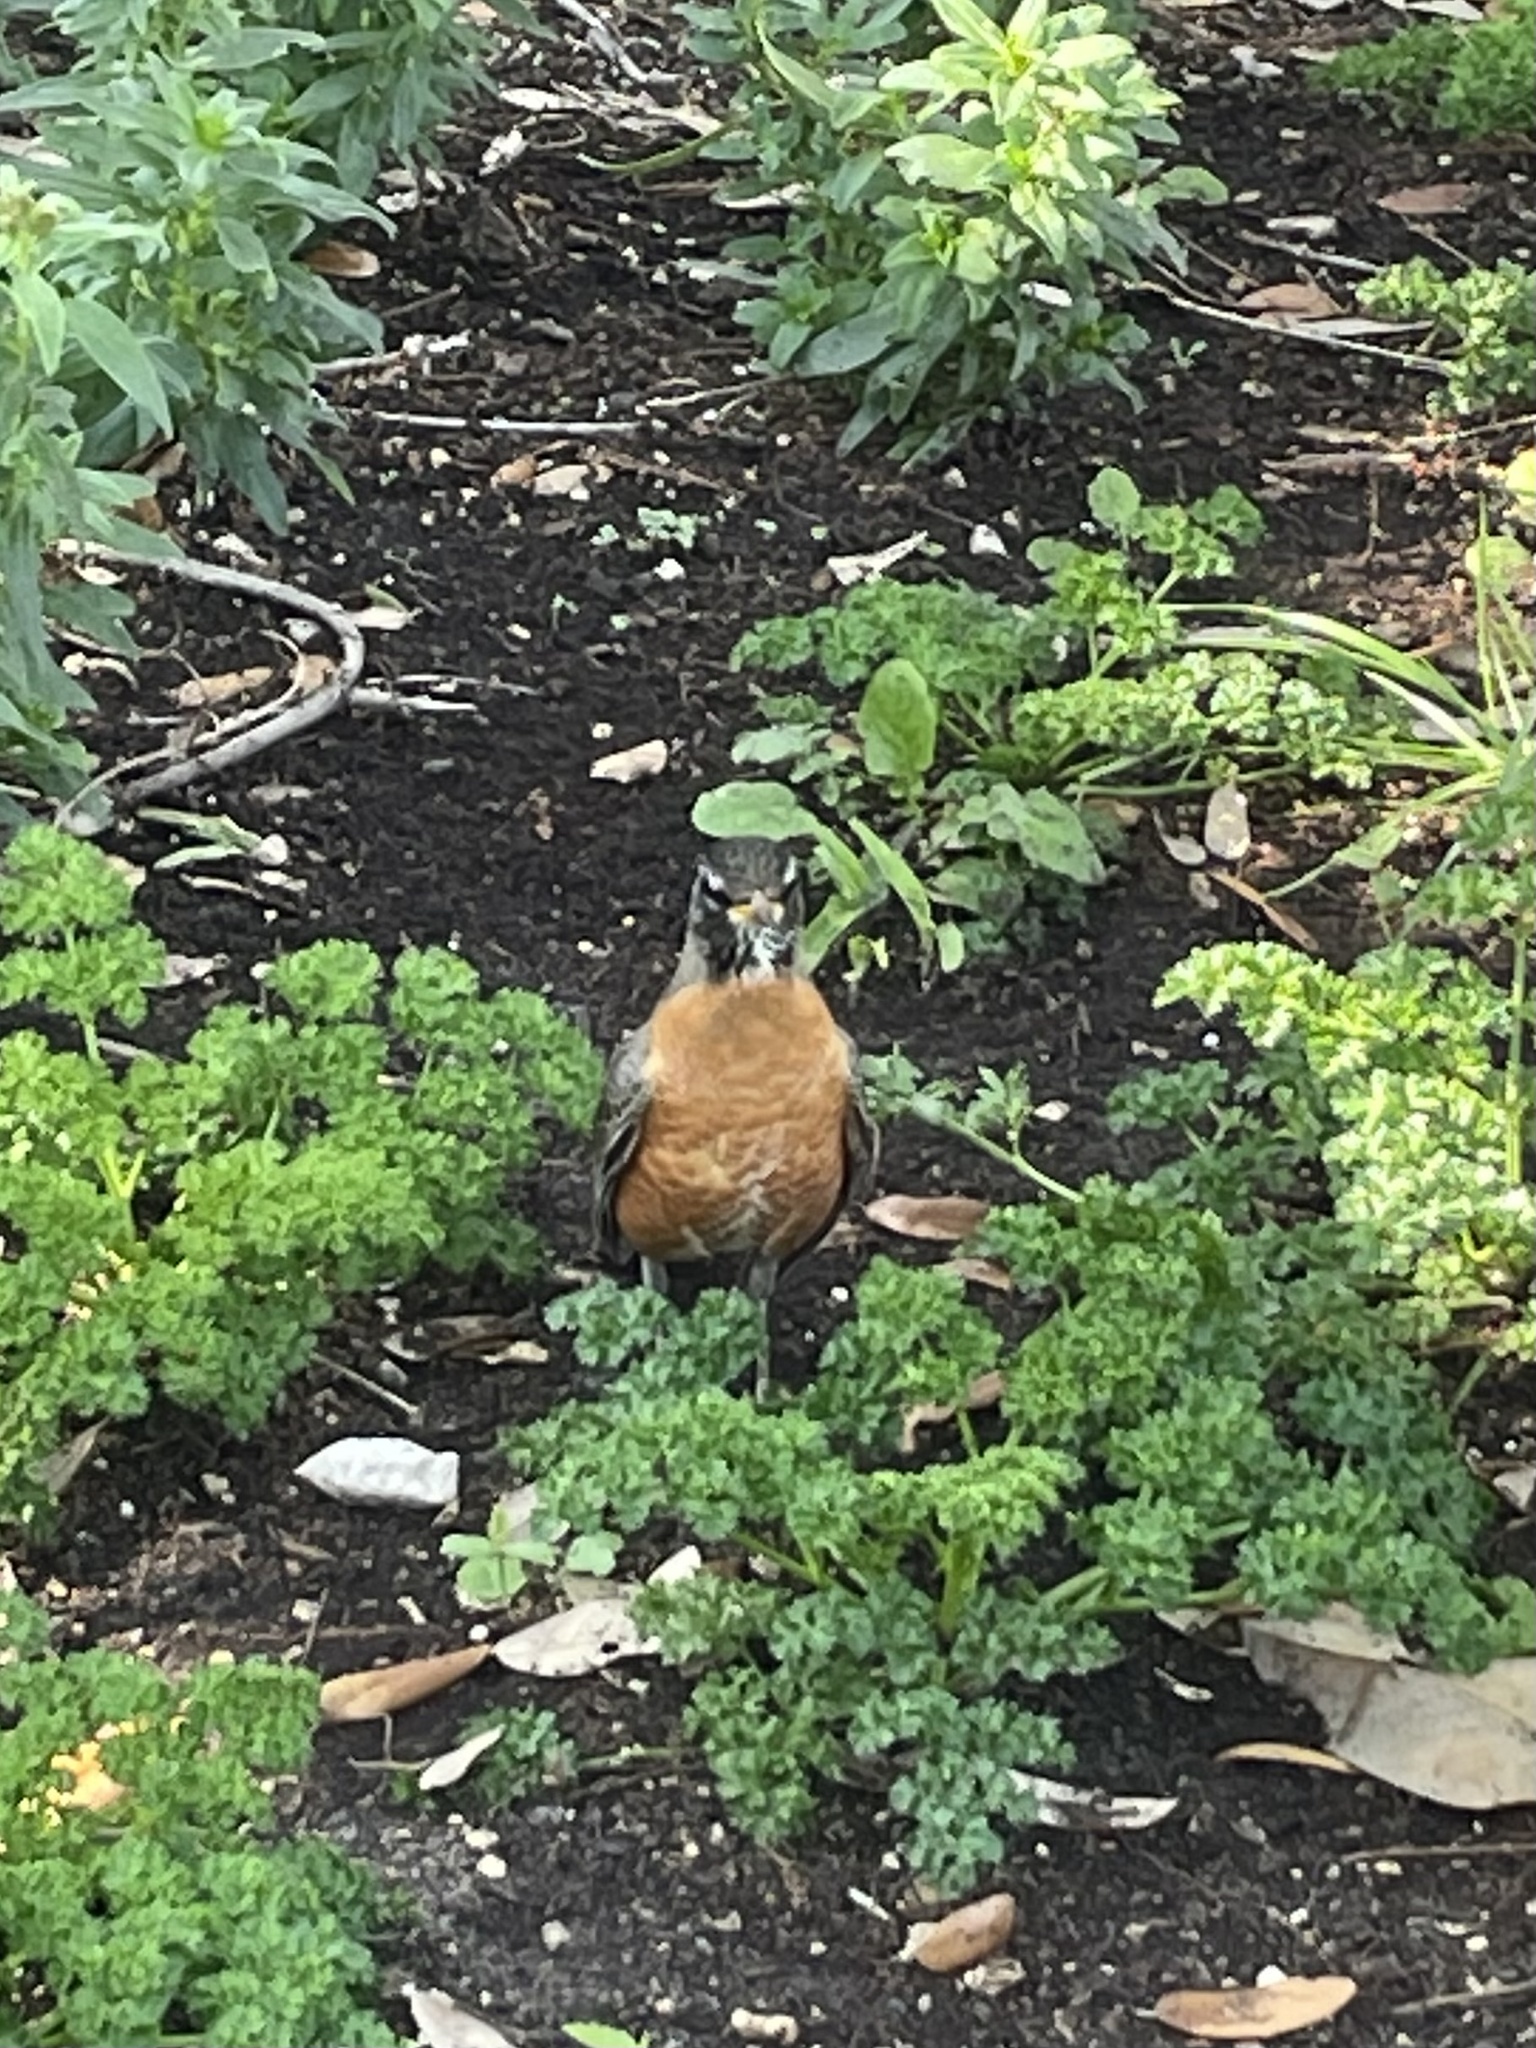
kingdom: Animalia
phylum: Chordata
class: Aves
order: Passeriformes
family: Turdidae
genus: Turdus
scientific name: Turdus migratorius
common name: American robin
